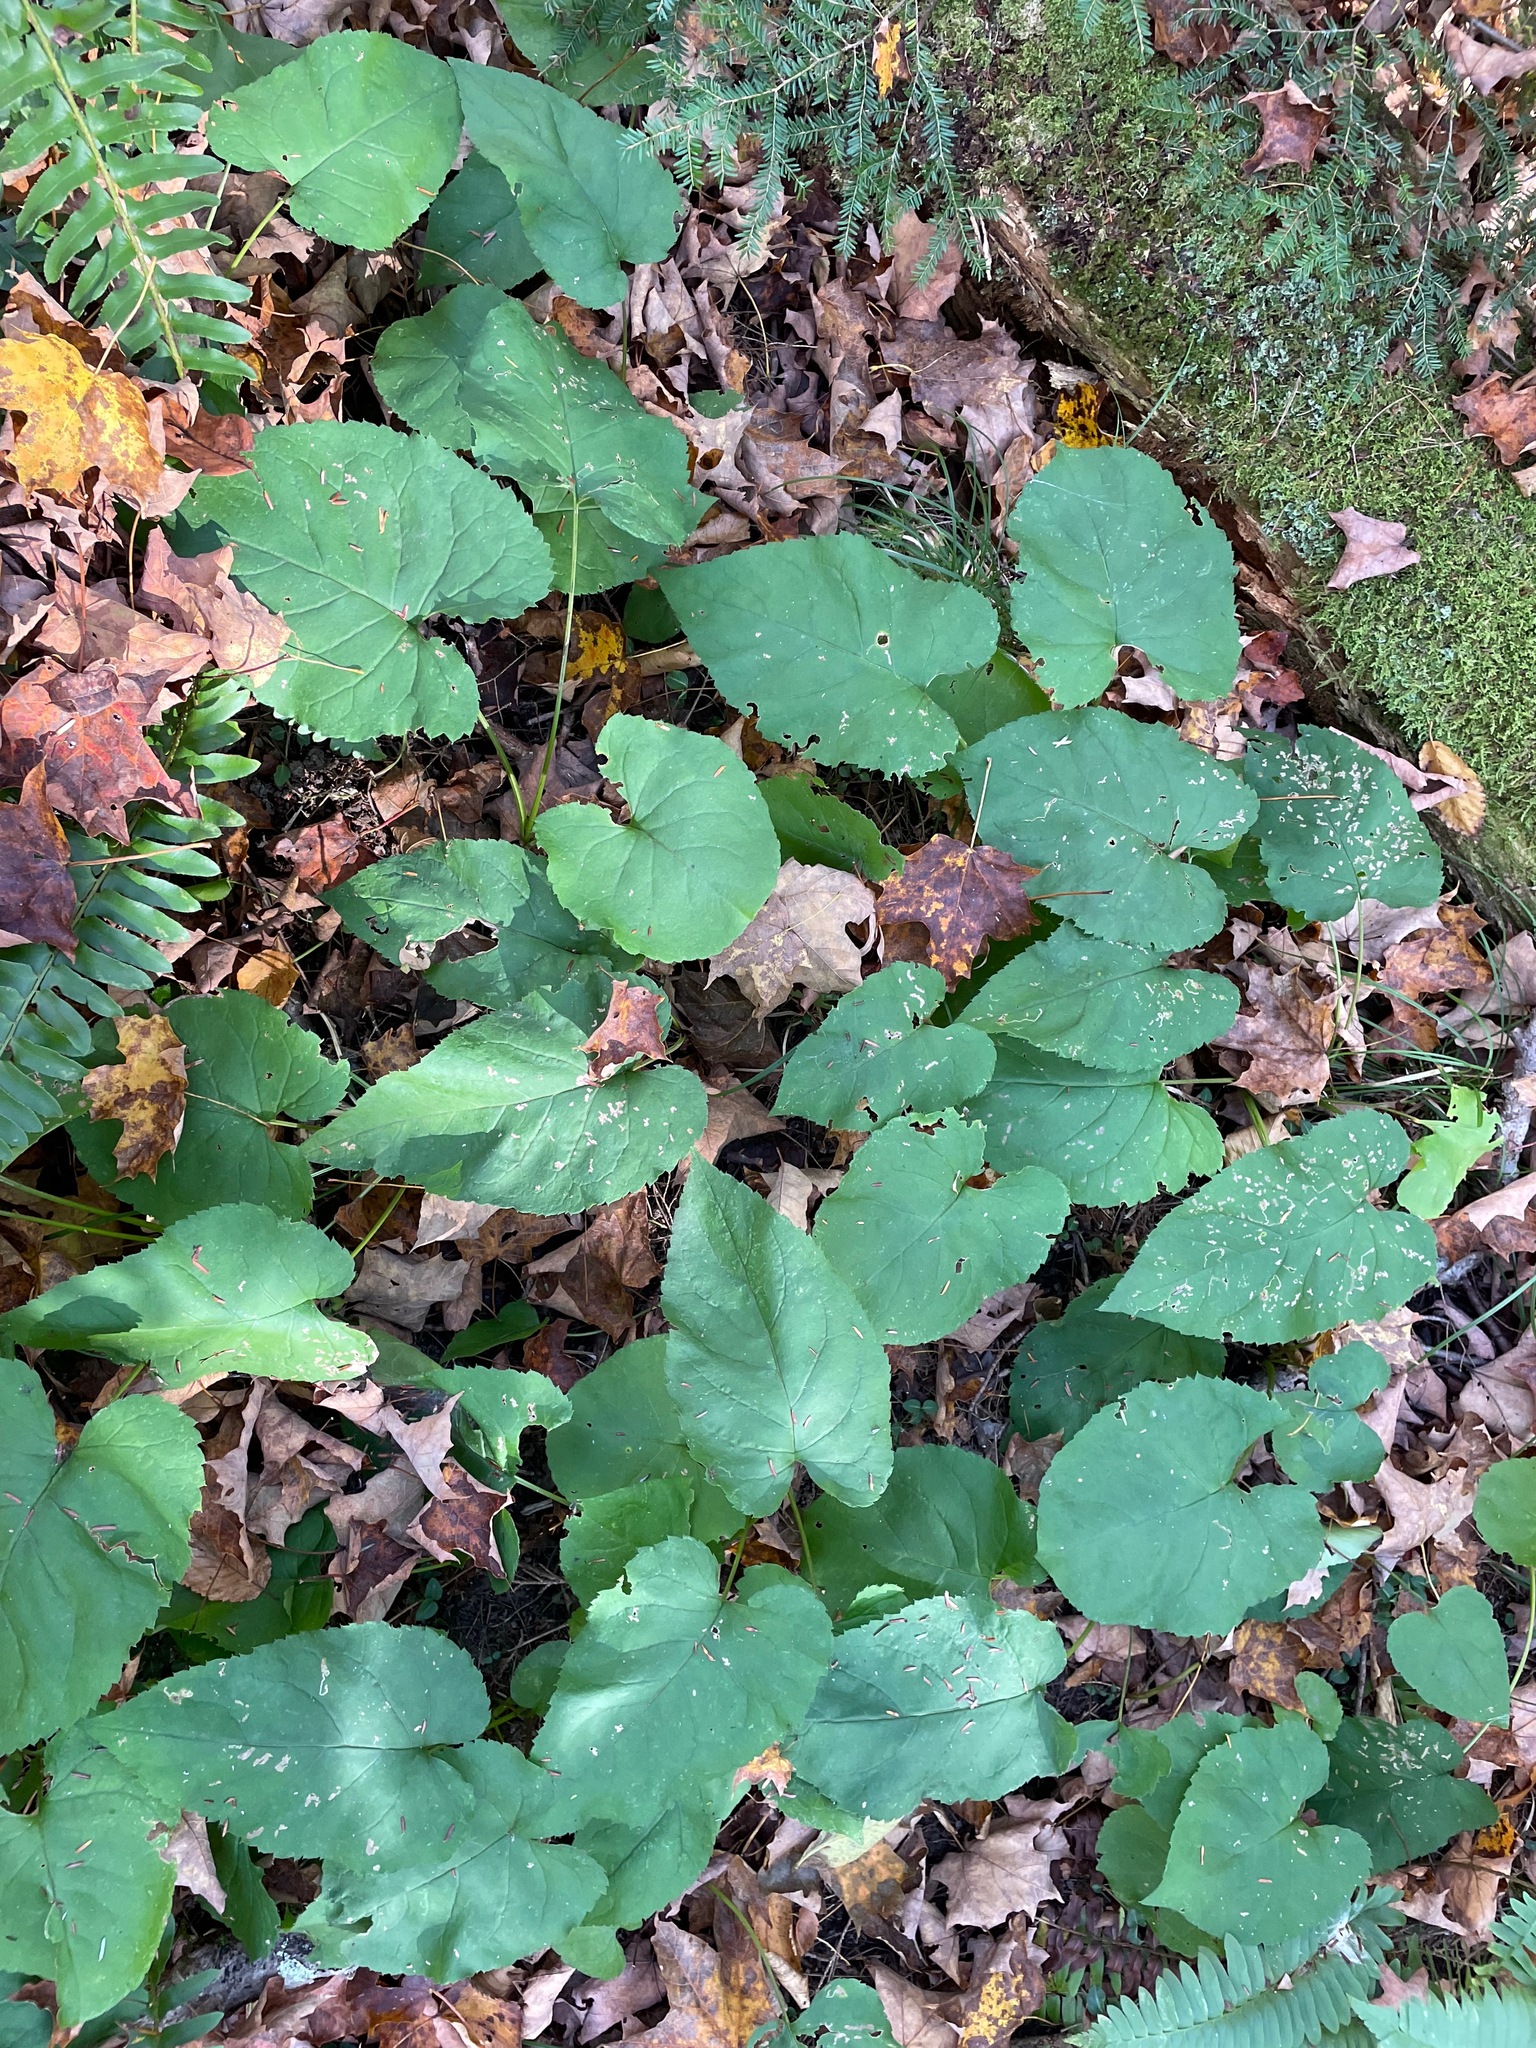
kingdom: Plantae
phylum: Tracheophyta
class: Magnoliopsida
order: Asterales
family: Asteraceae
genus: Eurybia
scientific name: Eurybia macrophylla
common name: Big-leaved aster
